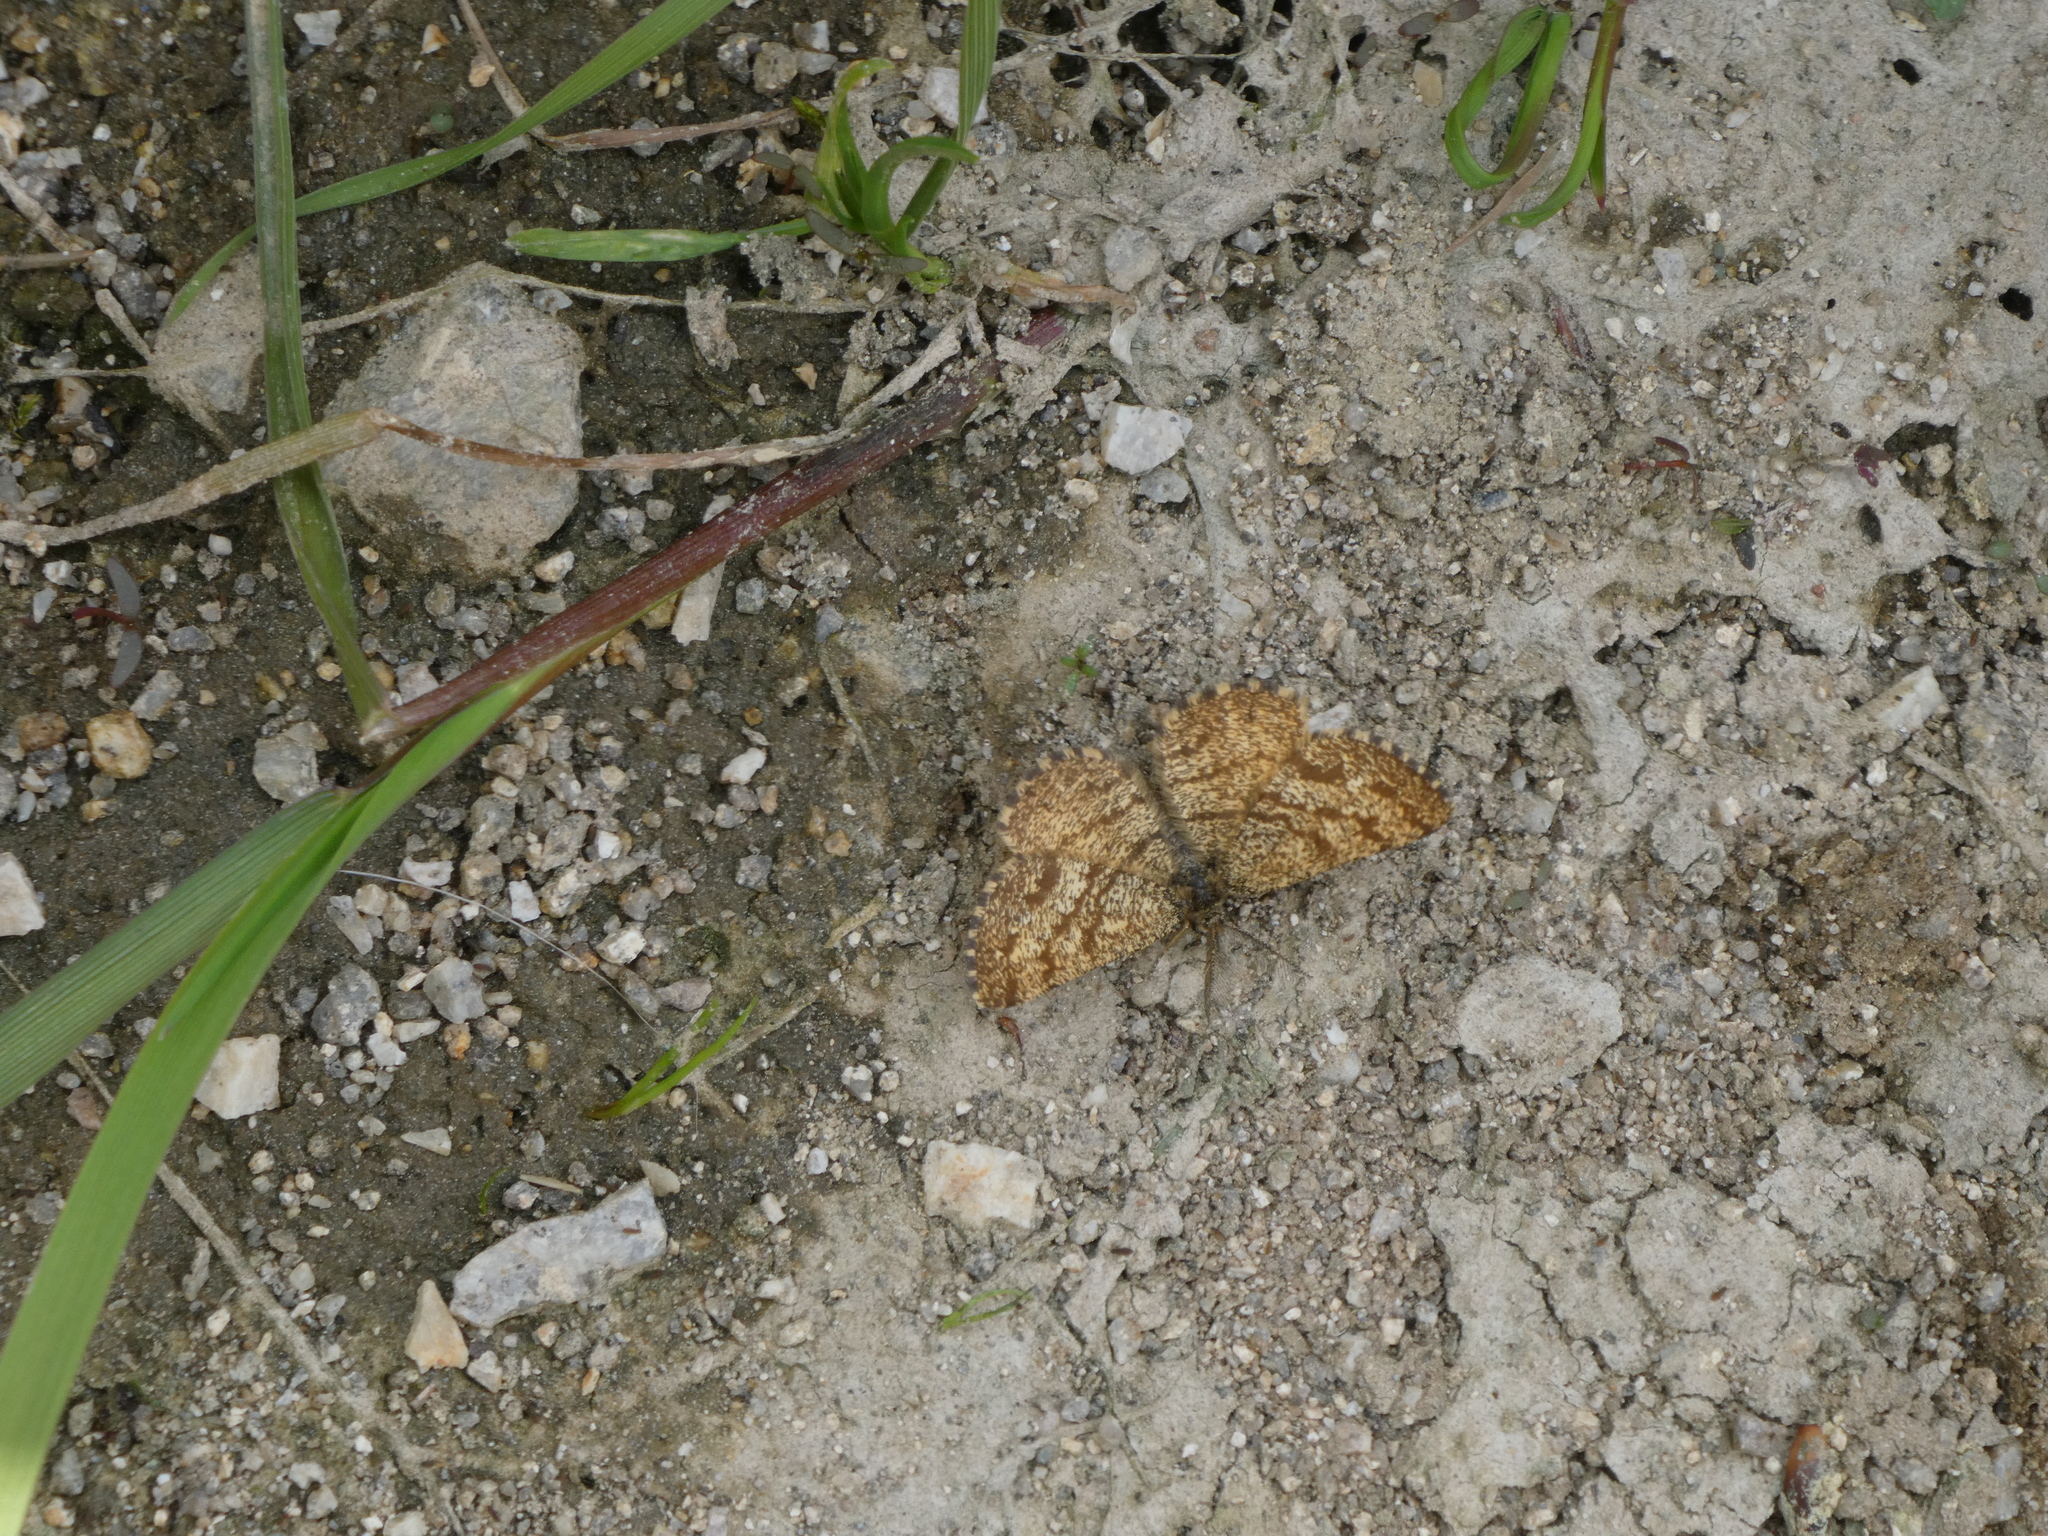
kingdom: Animalia
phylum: Arthropoda
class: Insecta
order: Lepidoptera
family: Geometridae
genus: Ematurga
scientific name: Ematurga atomaria
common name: Common heath
